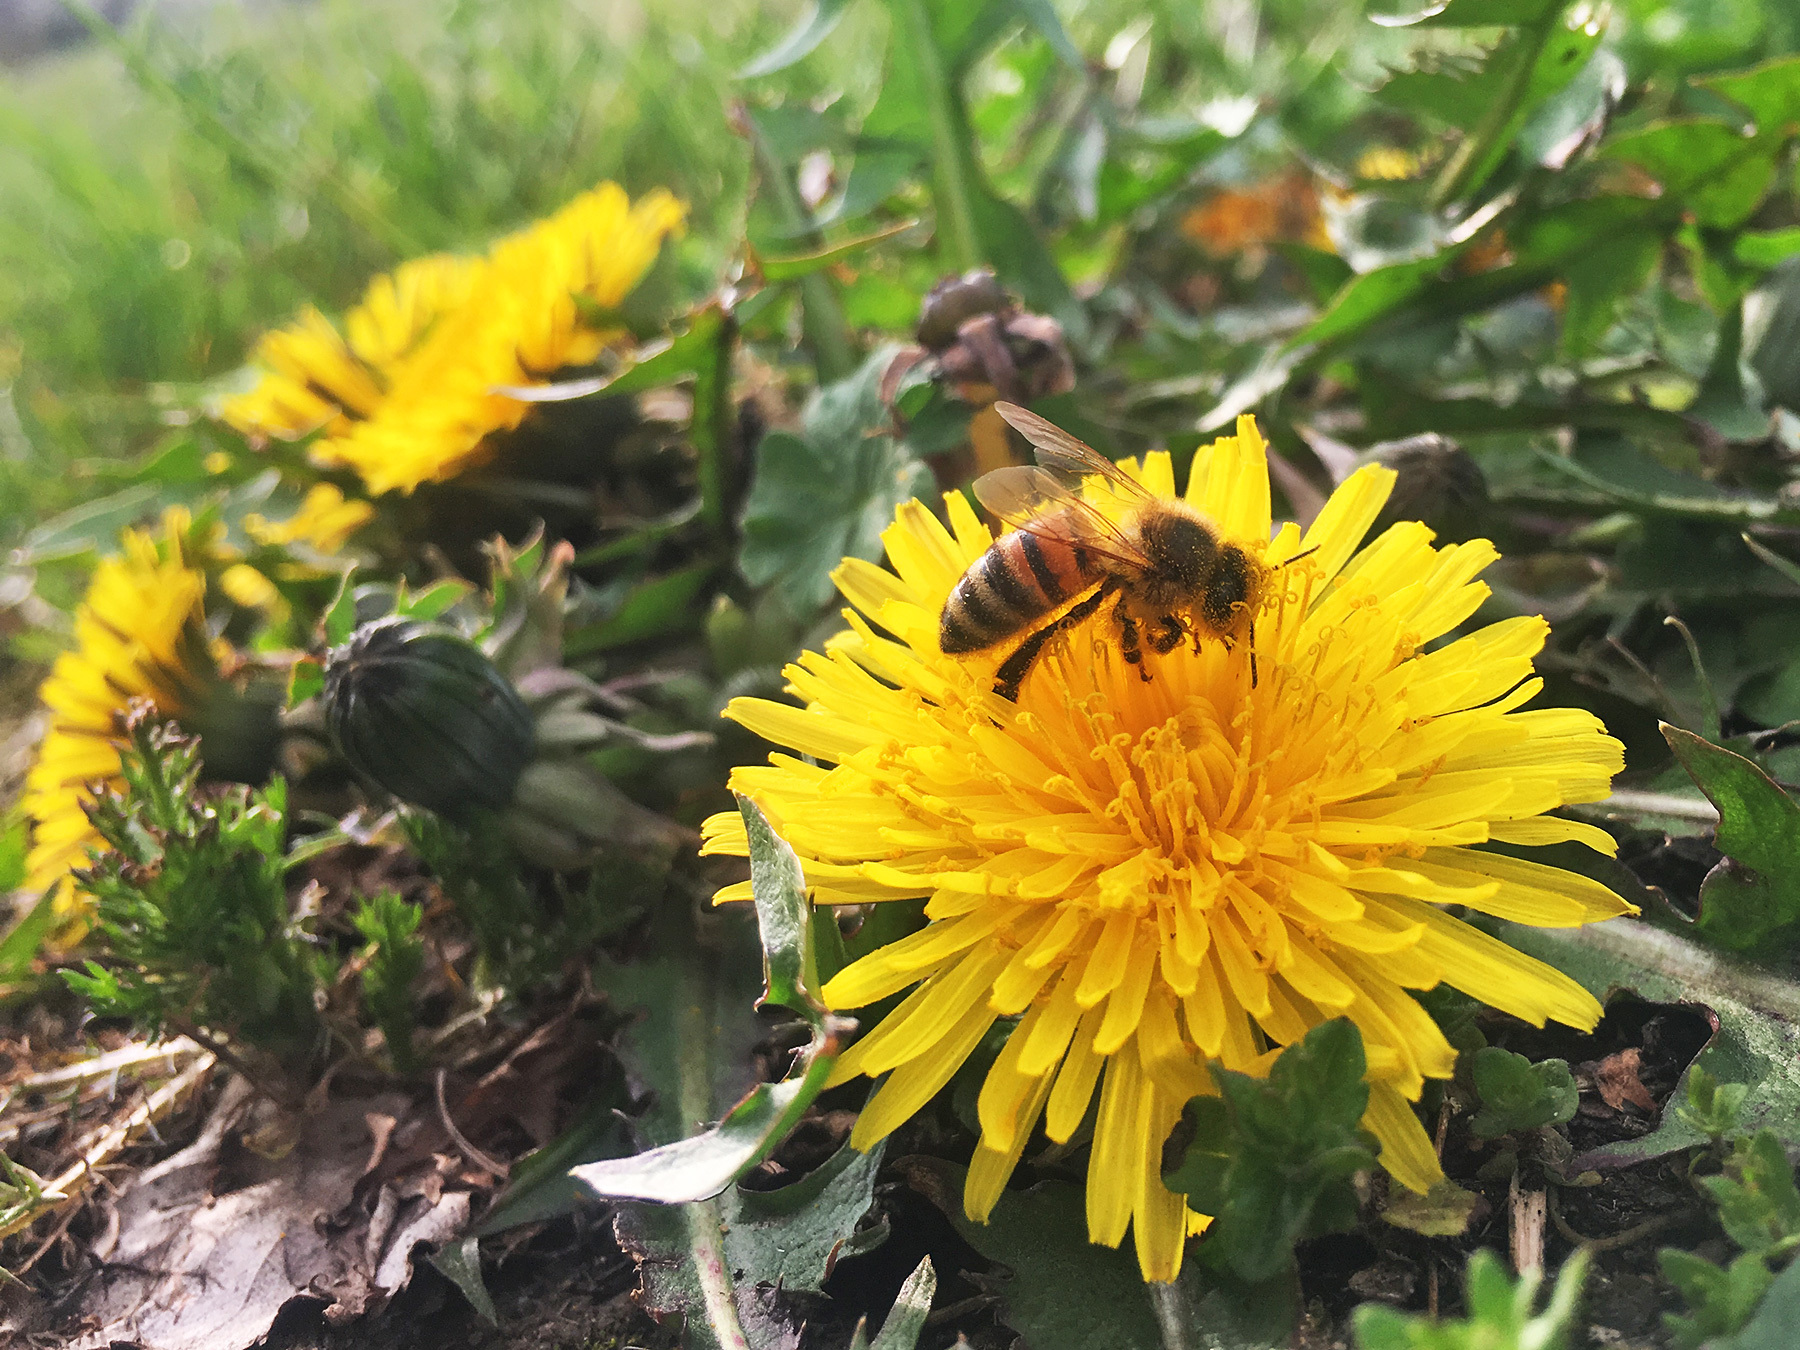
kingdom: Animalia
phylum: Arthropoda
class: Insecta
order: Hymenoptera
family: Apidae
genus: Apis
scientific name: Apis mellifera
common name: Honey bee
